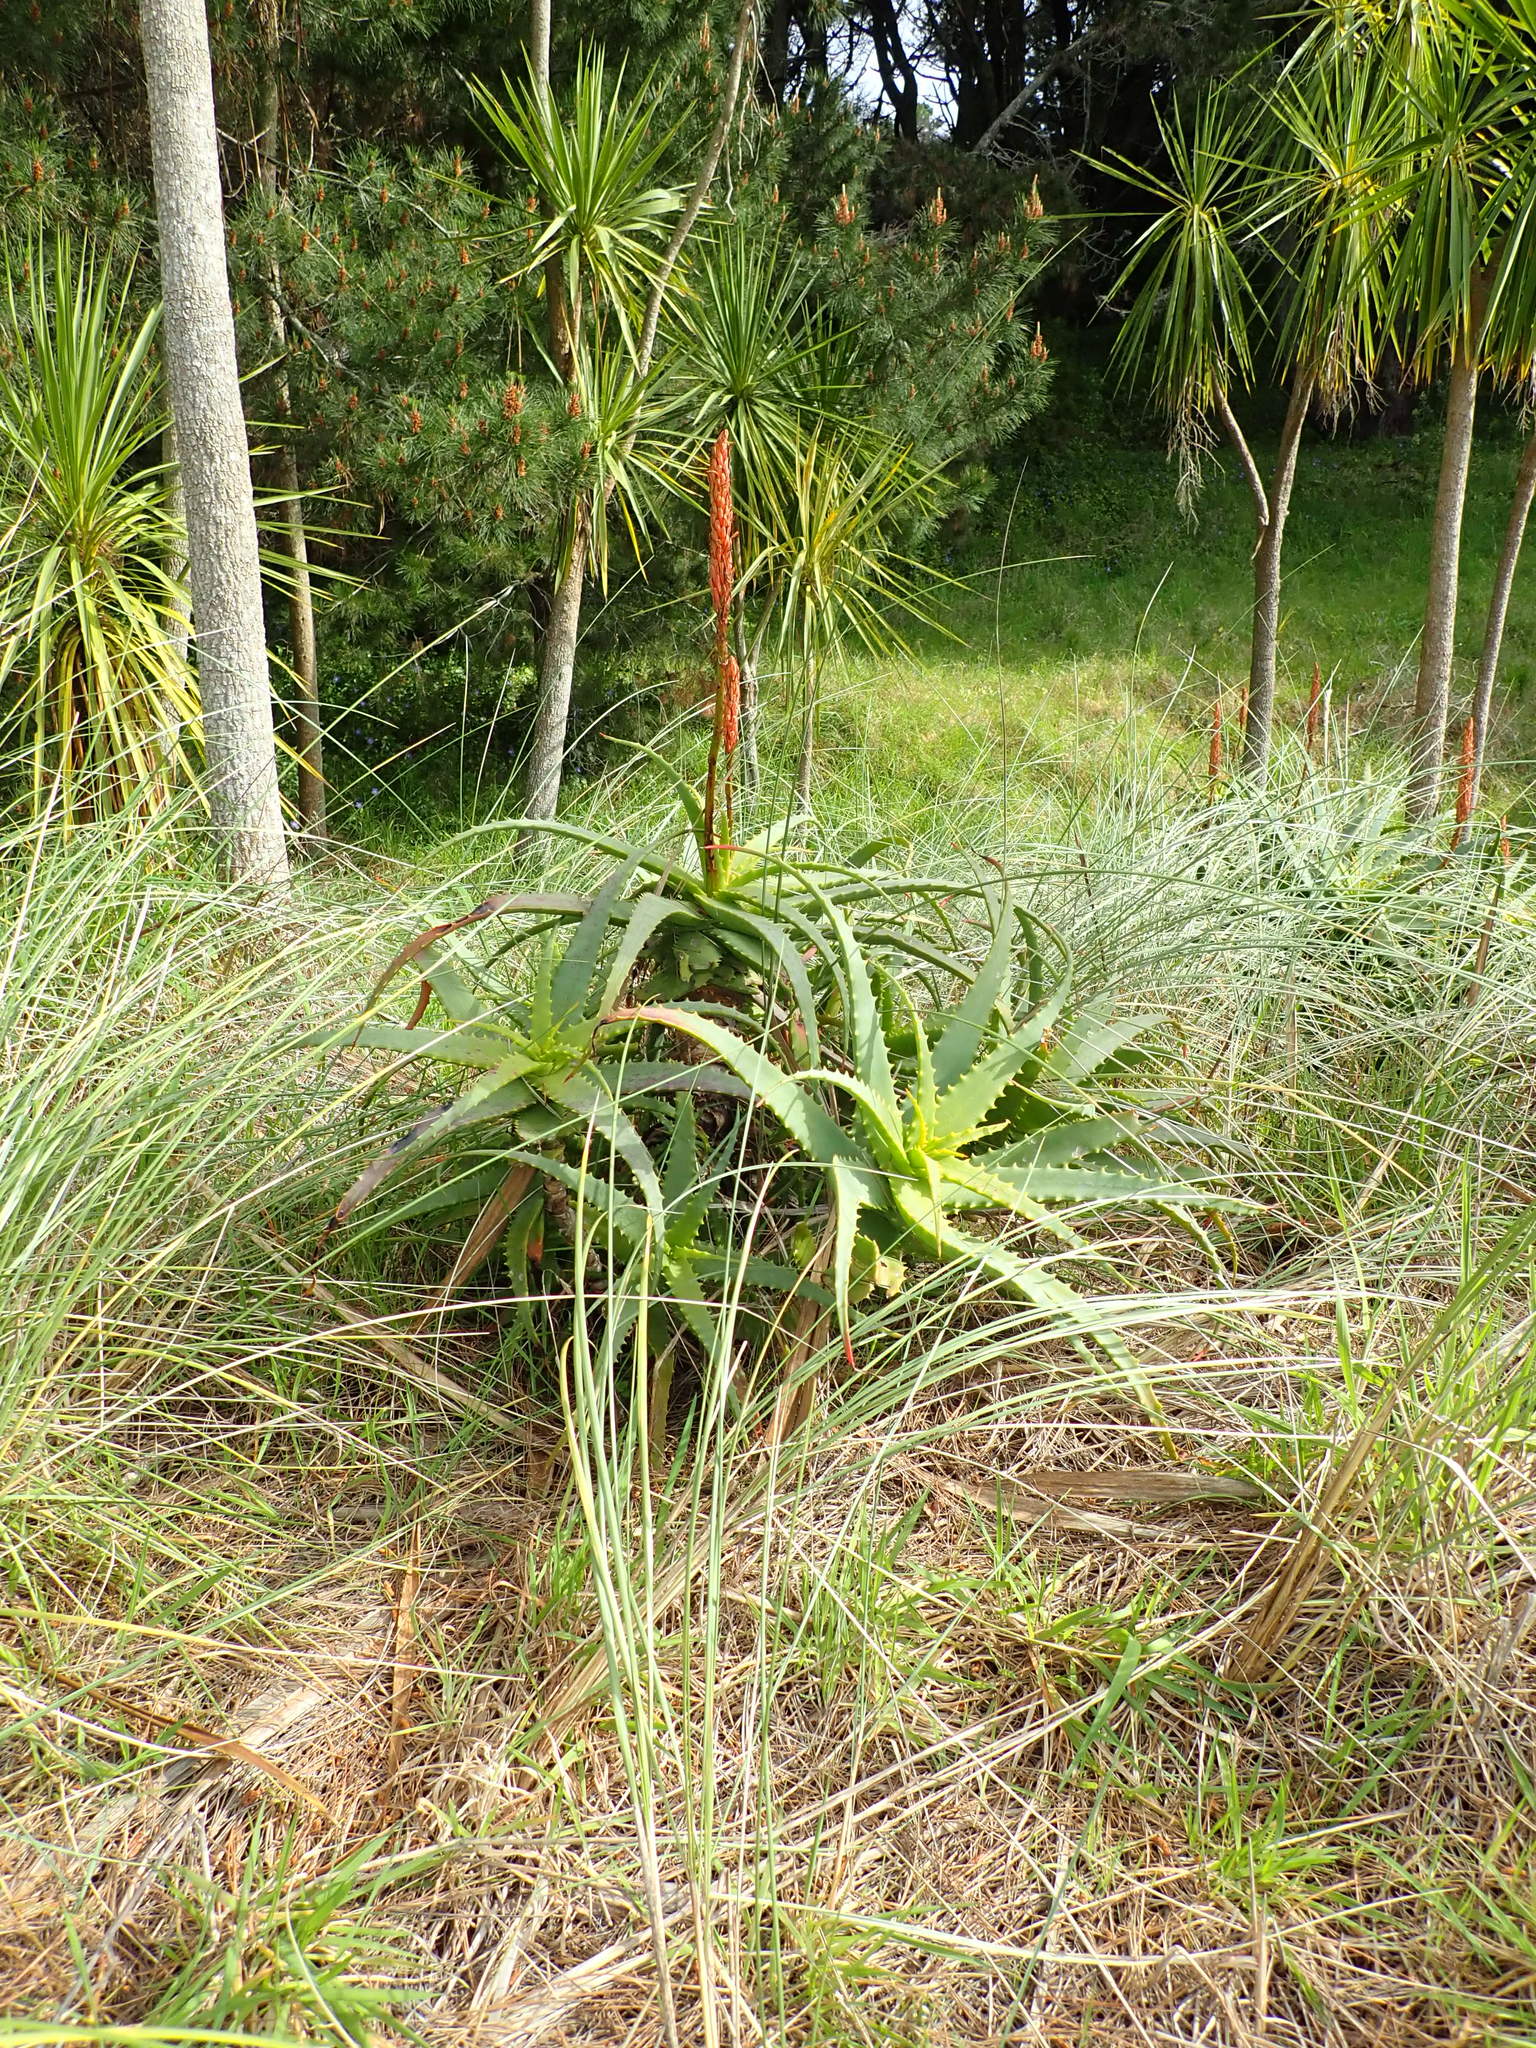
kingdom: Plantae
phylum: Tracheophyta
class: Liliopsida
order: Asparagales
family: Asphodelaceae
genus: Aloe
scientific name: Aloe arborescens
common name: Candelabra aloe
